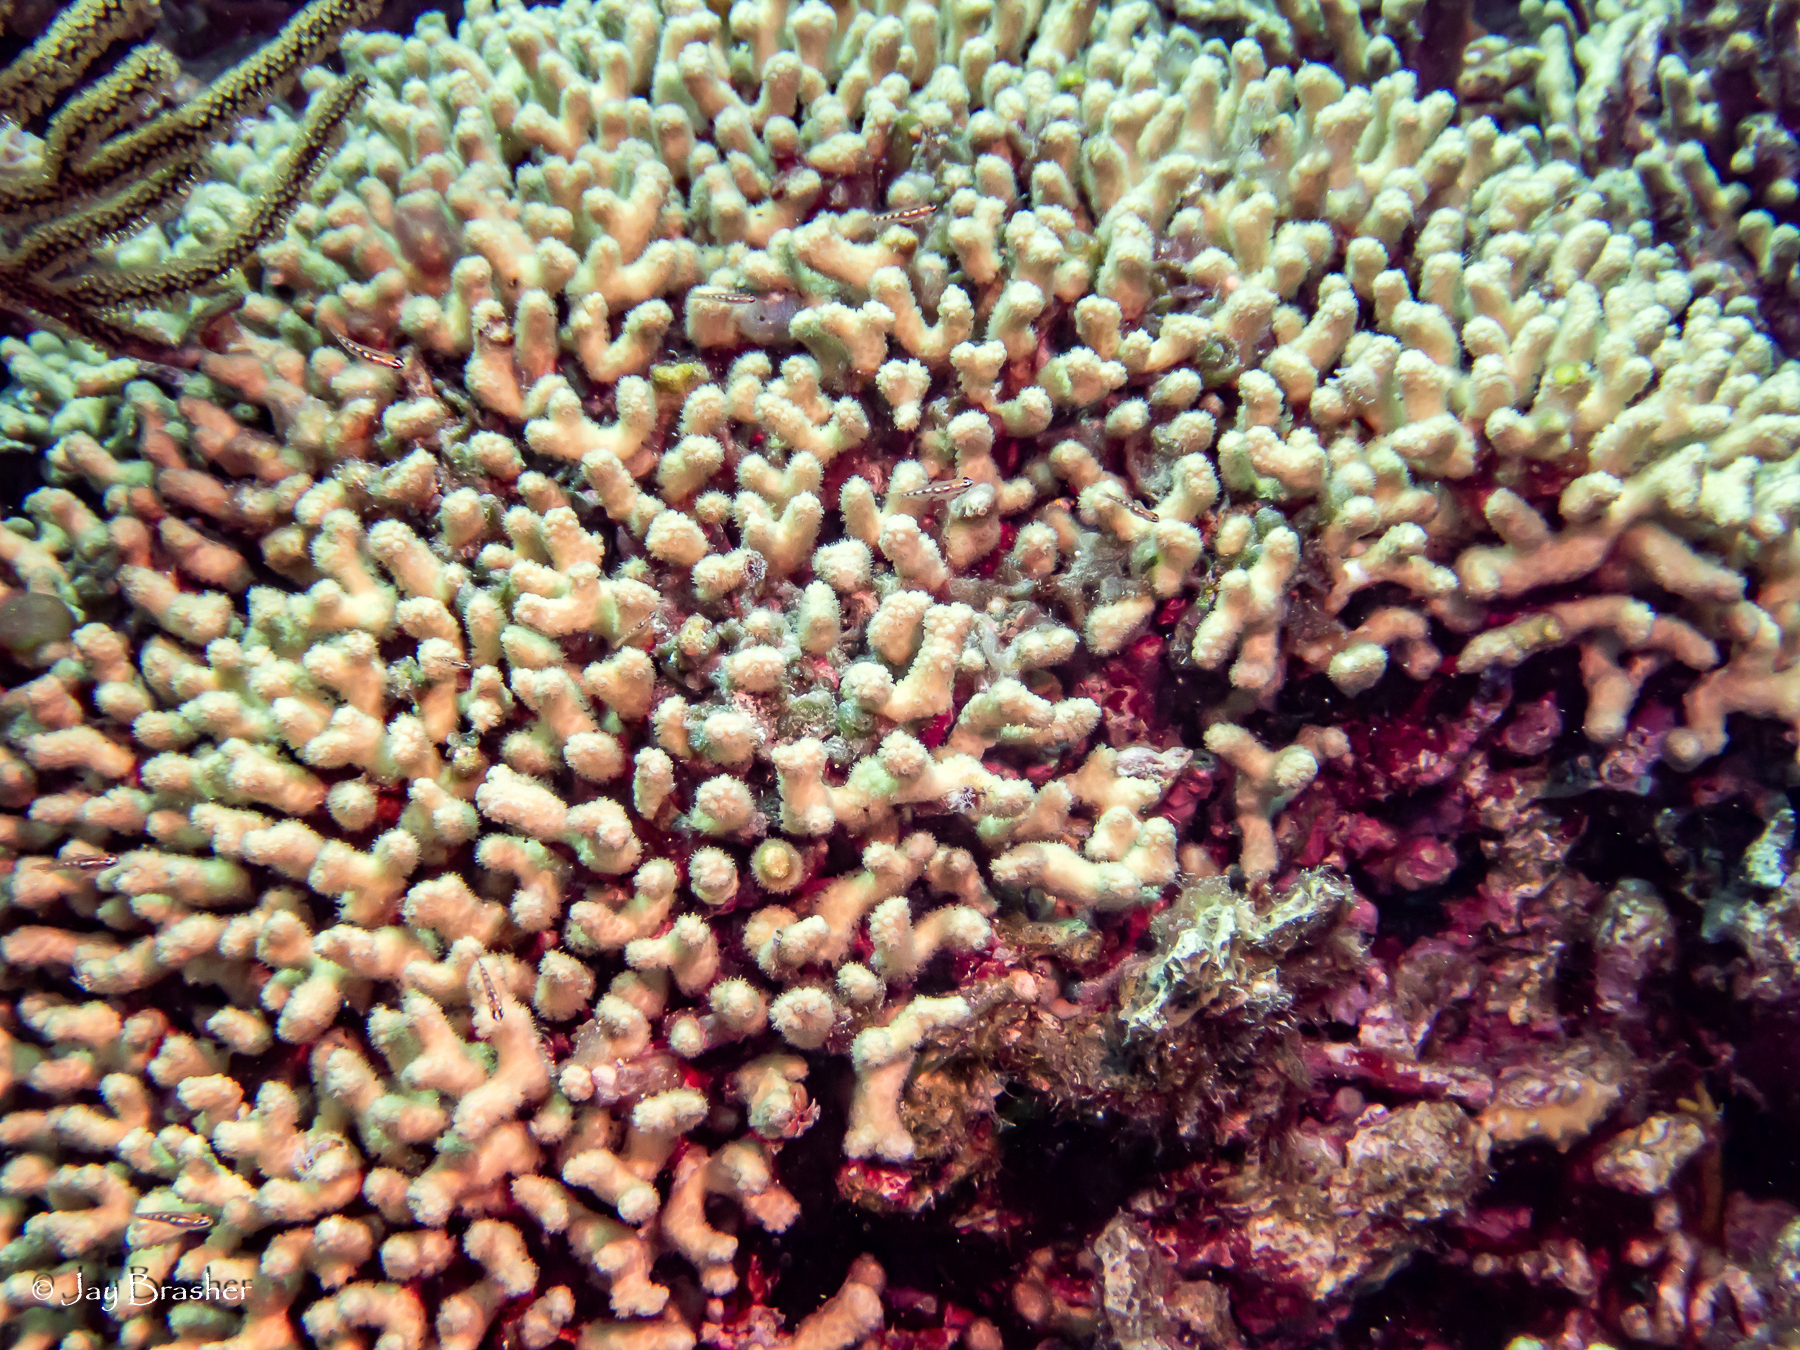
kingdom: Animalia
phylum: Cnidaria
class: Anthozoa
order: Scleractinia
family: Pocilloporidae
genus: Madracis
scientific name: Madracis auretenra
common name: Yellow pencil coral
